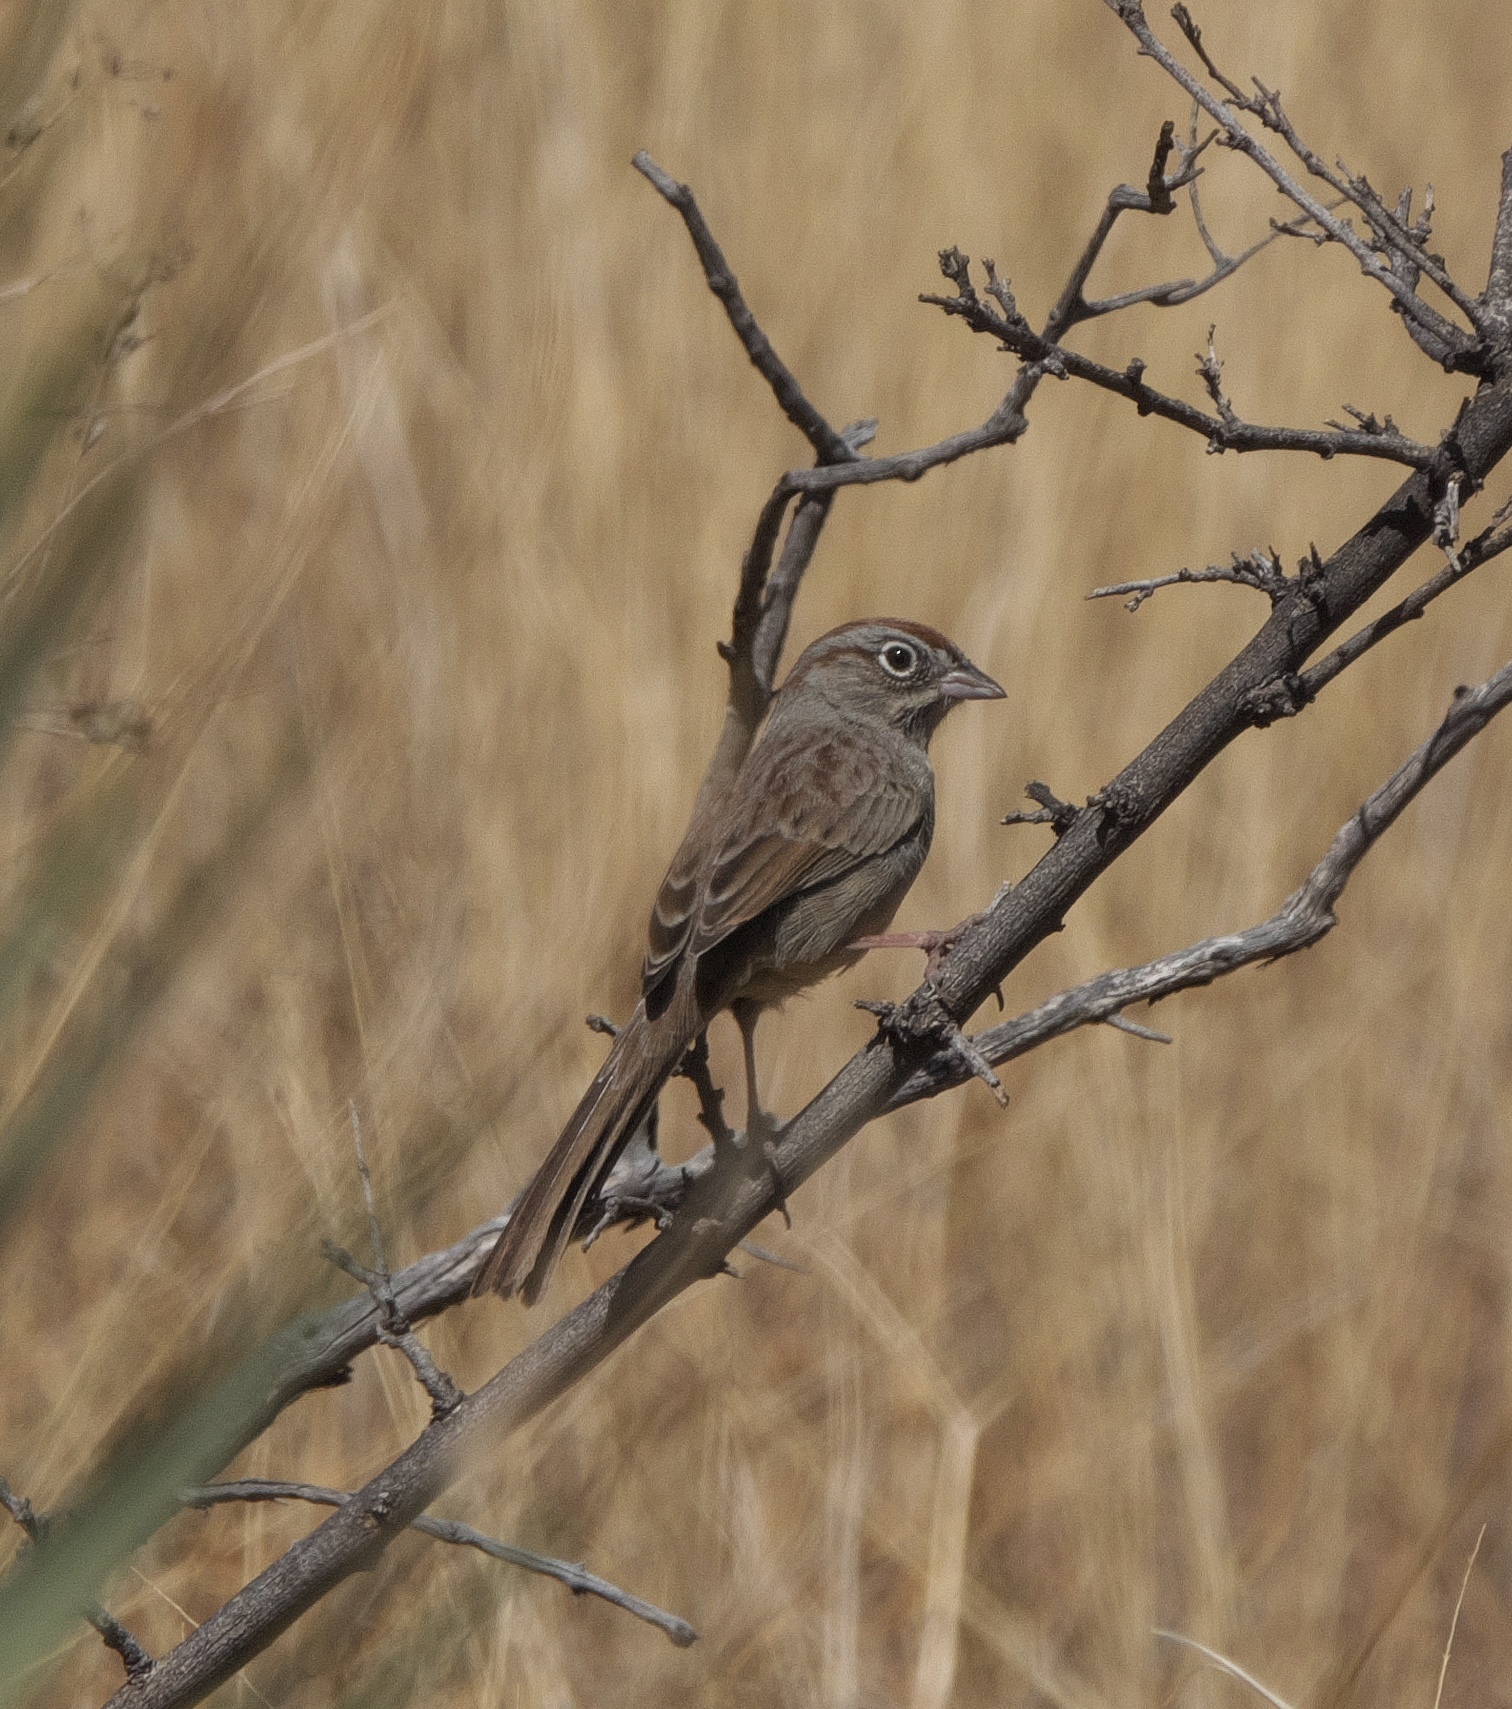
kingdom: Animalia
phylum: Chordata
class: Aves
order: Passeriformes
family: Passerellidae
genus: Aimophila
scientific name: Aimophila ruficeps
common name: Rufous-crowned sparrow
